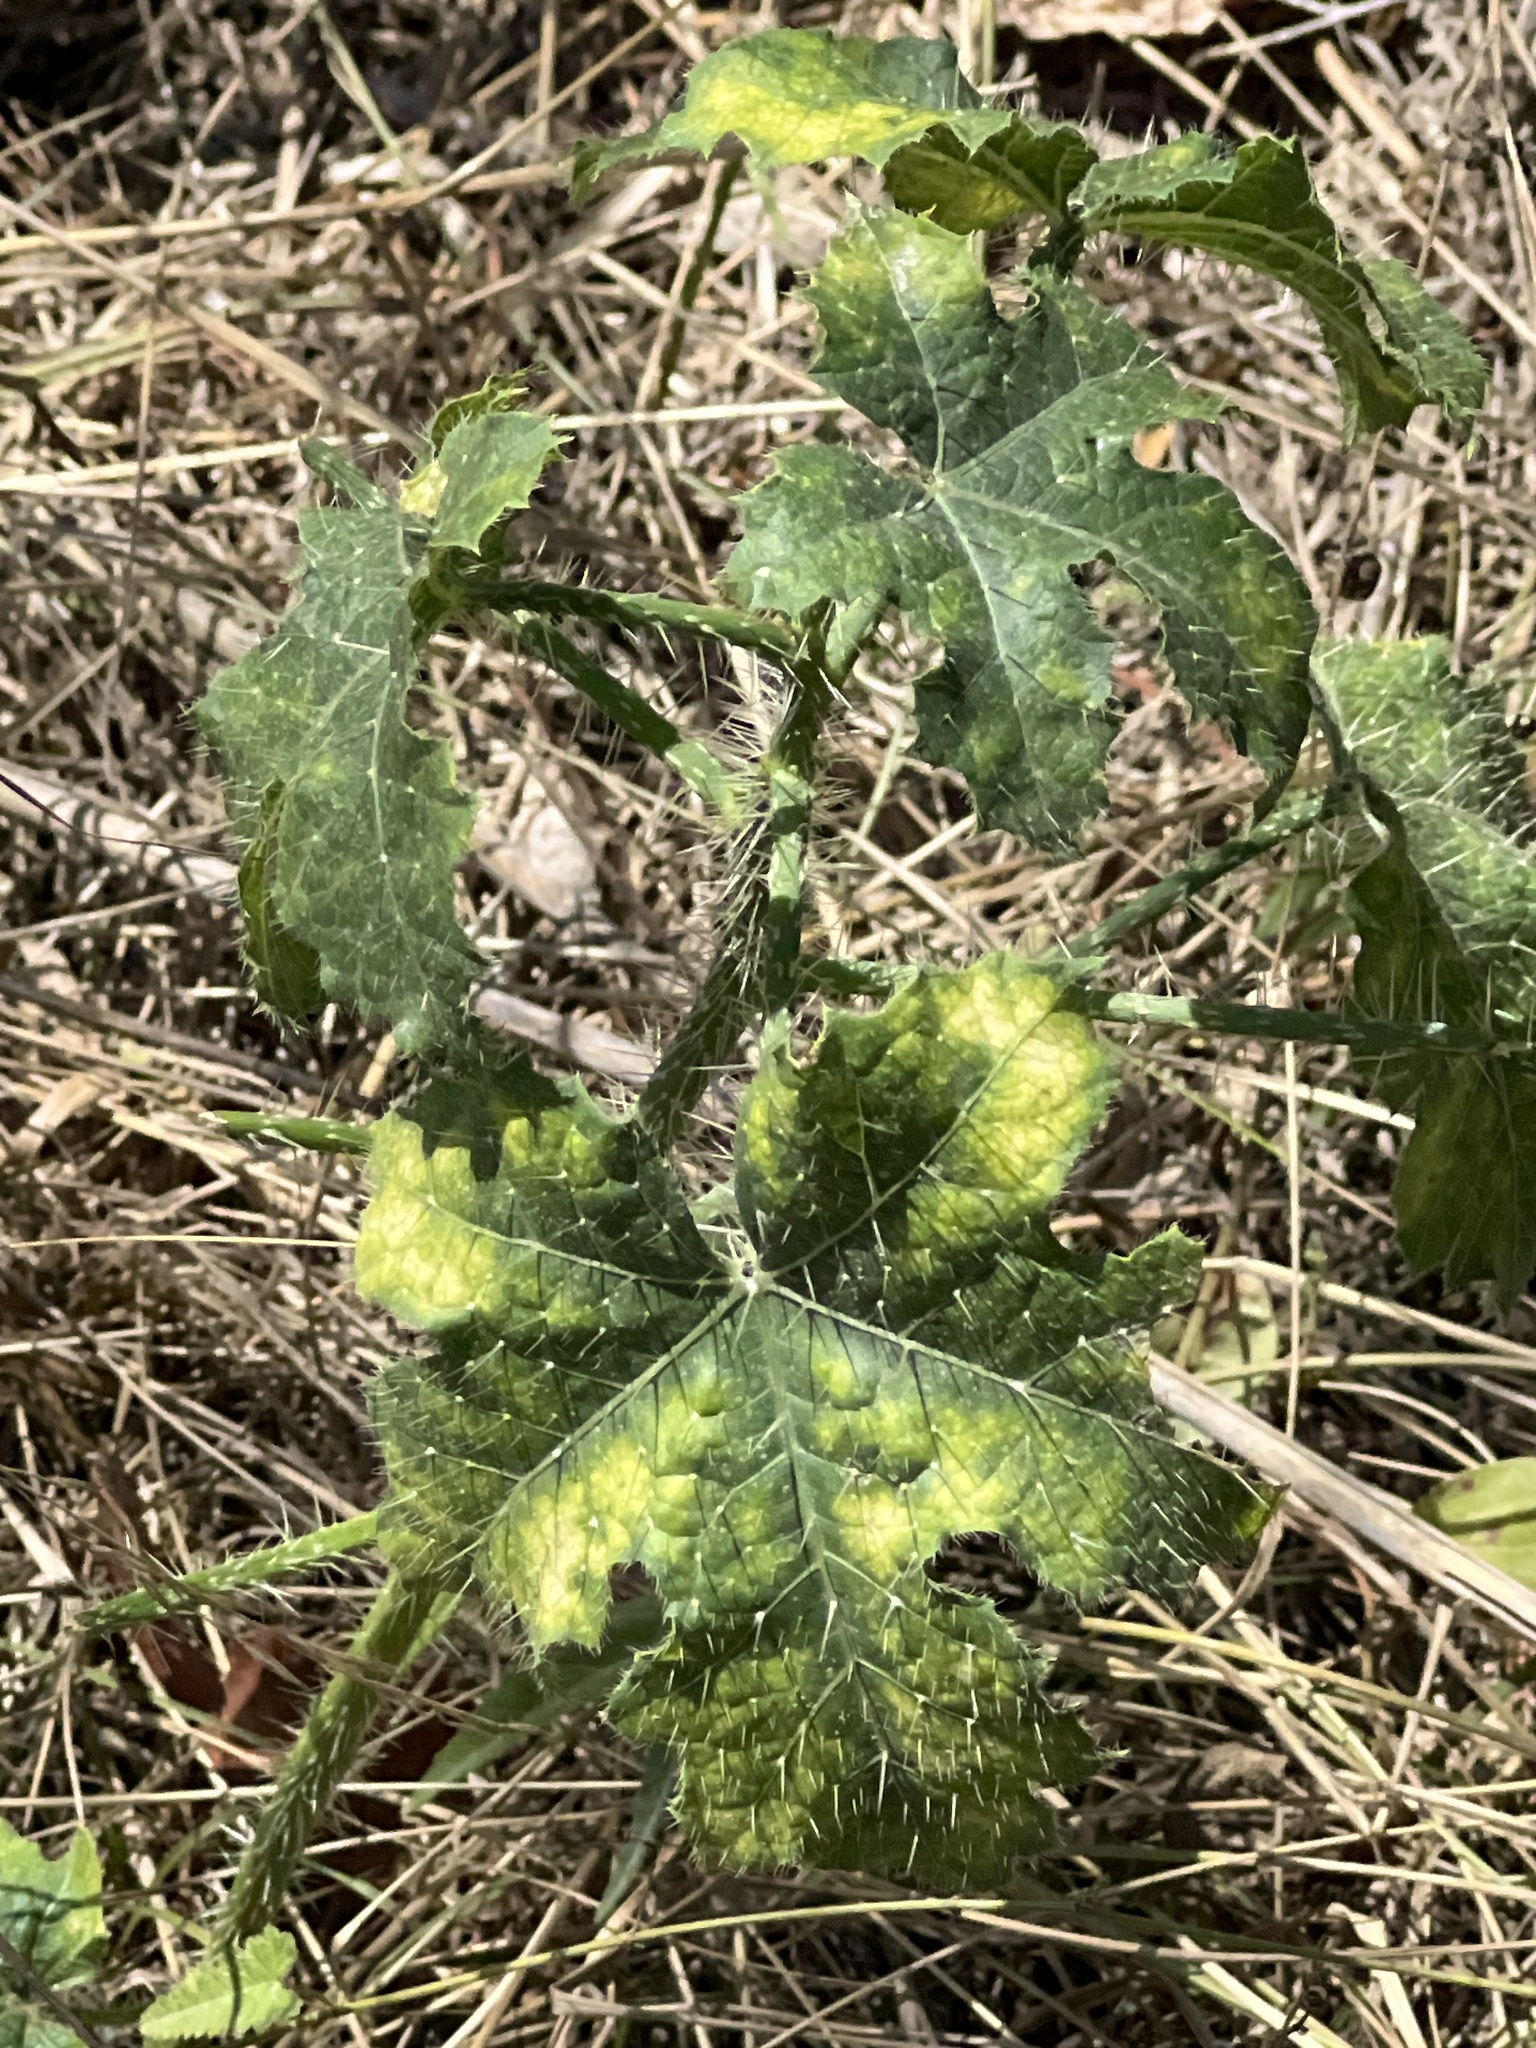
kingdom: Plantae
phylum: Tracheophyta
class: Magnoliopsida
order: Malpighiales
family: Euphorbiaceae
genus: Cnidoscolus
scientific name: Cnidoscolus texanus
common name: Texas bull-nettle
